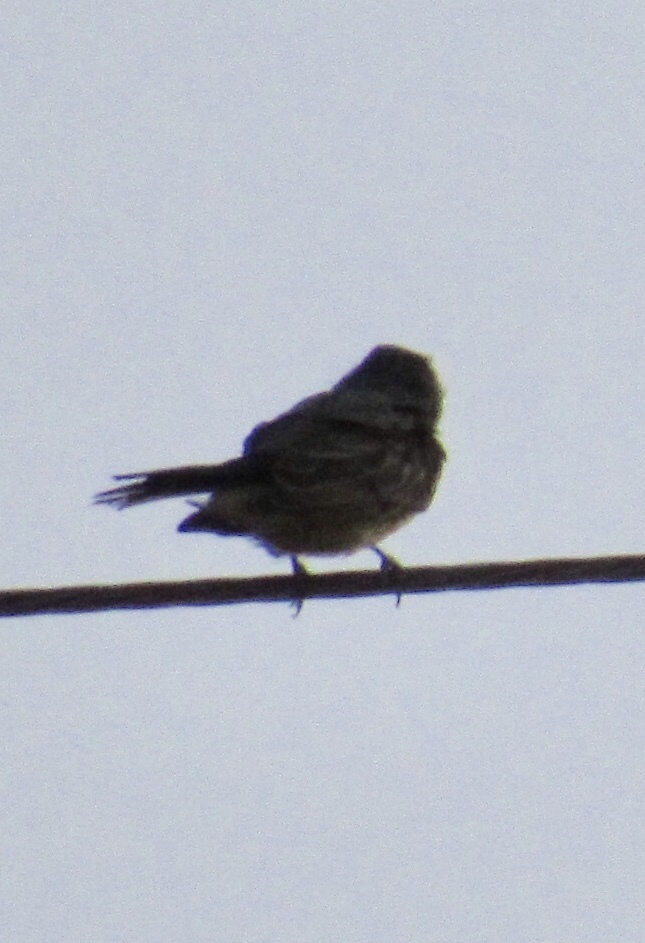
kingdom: Animalia
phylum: Chordata
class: Aves
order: Passeriformes
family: Tyrannidae
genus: Tyrannus
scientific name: Tyrannus vociferans
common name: Cassin's kingbird
